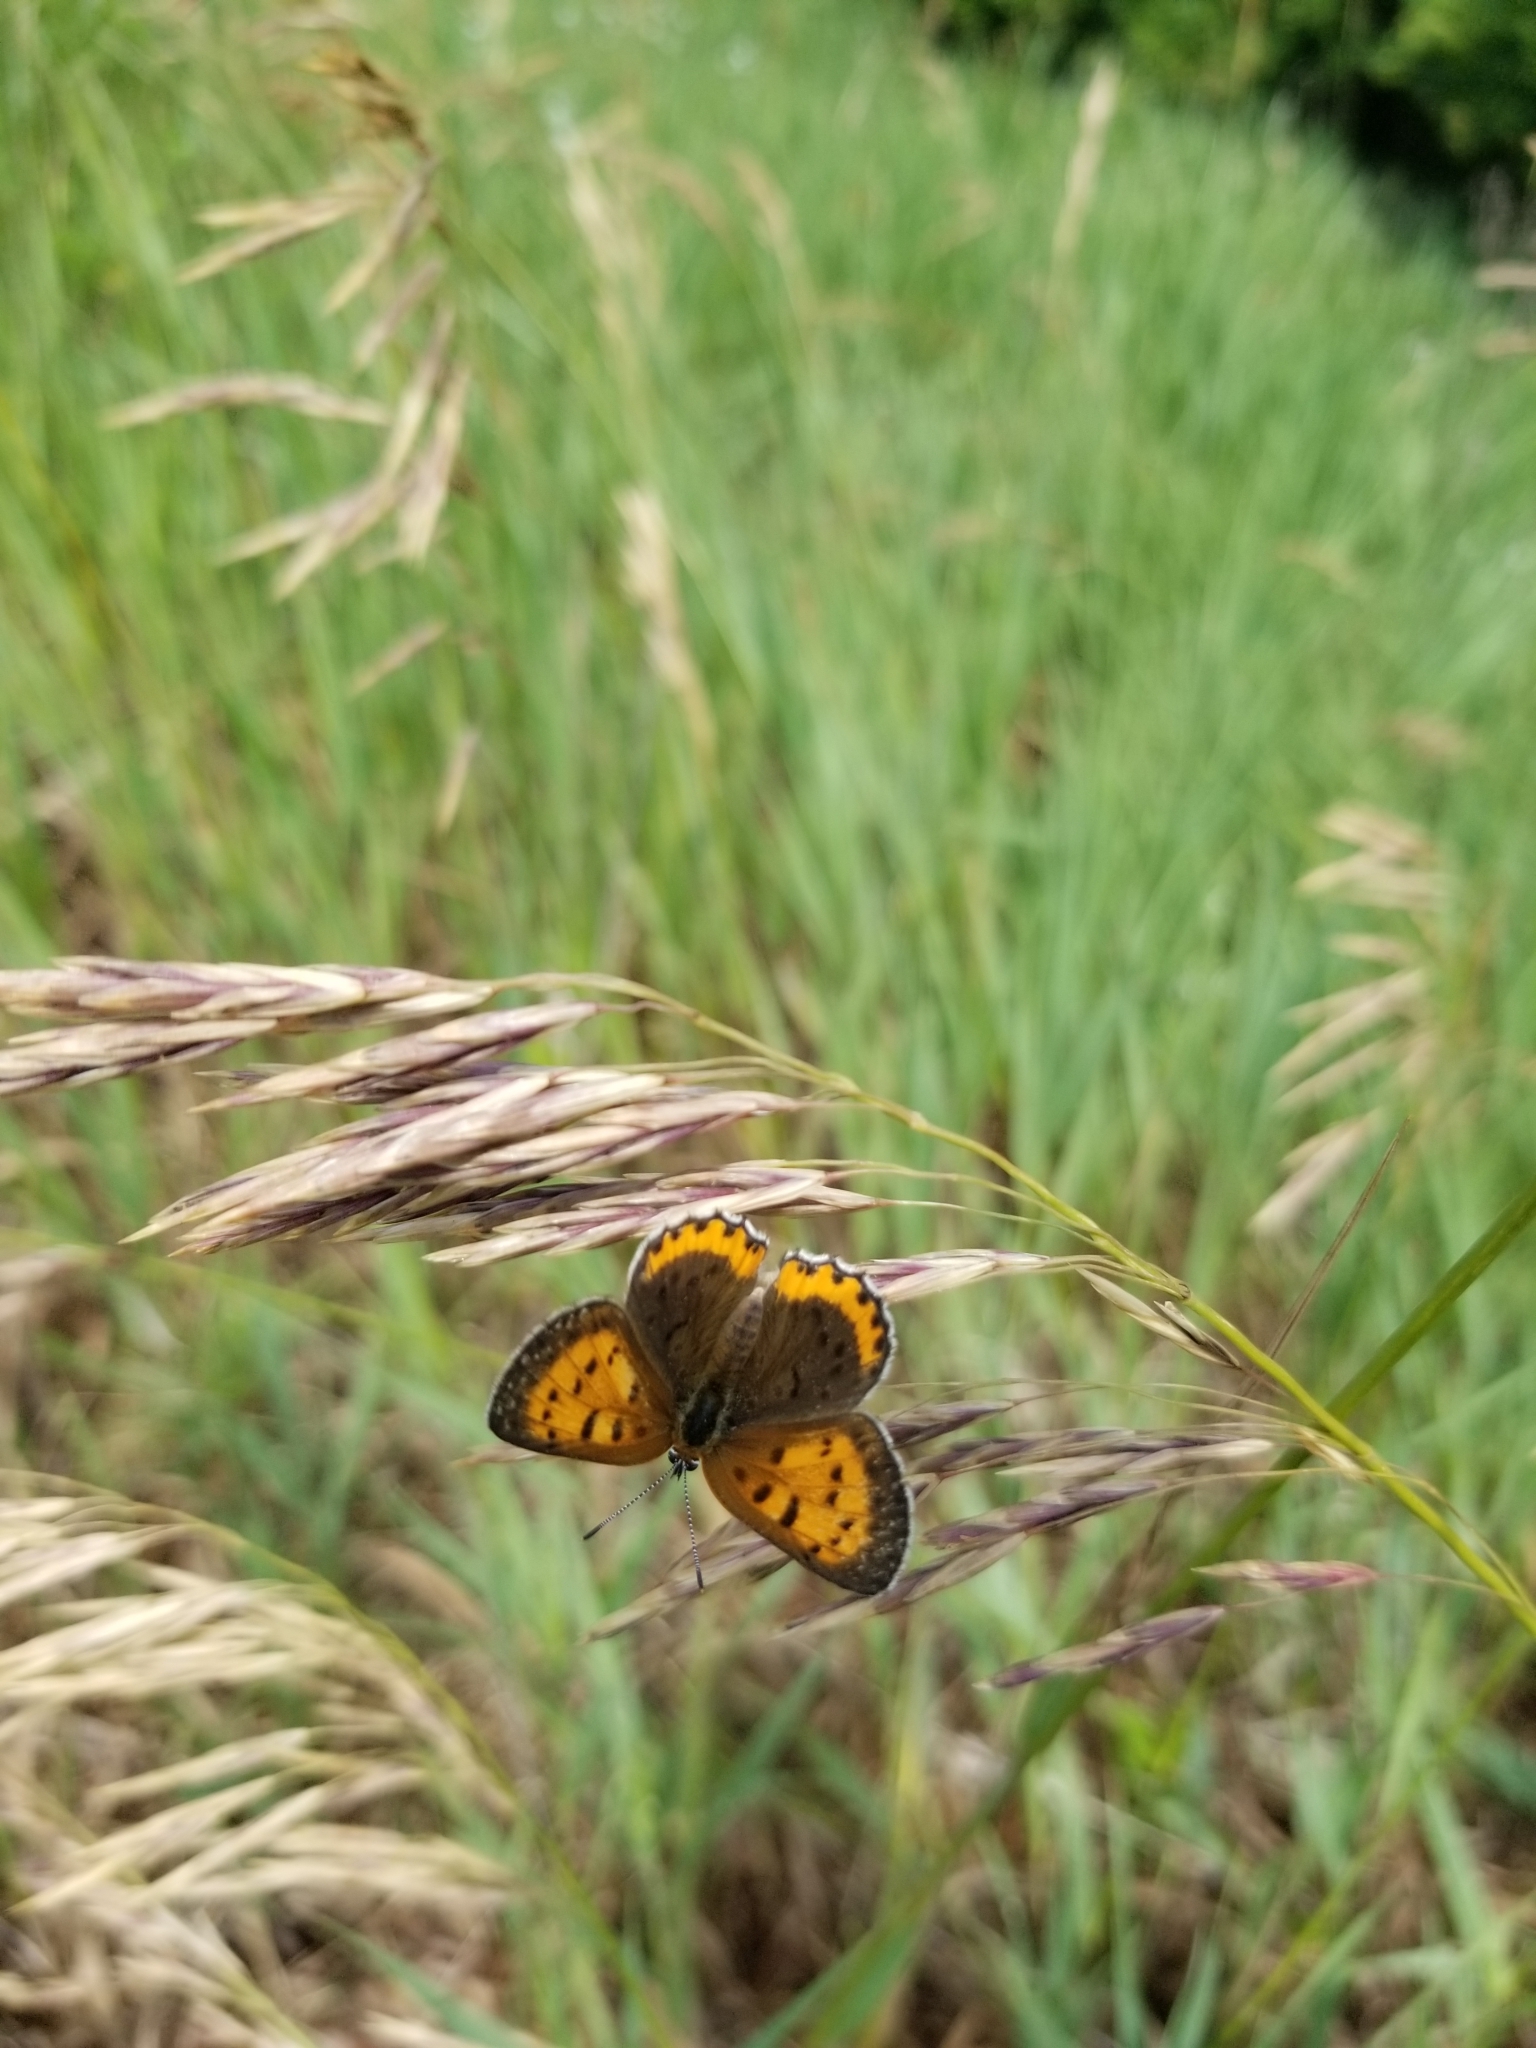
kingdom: Animalia
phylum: Arthropoda
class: Insecta
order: Lepidoptera
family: Lycaenidae
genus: Tharsalea
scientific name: Tharsalea hyllus
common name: Bronze copper
